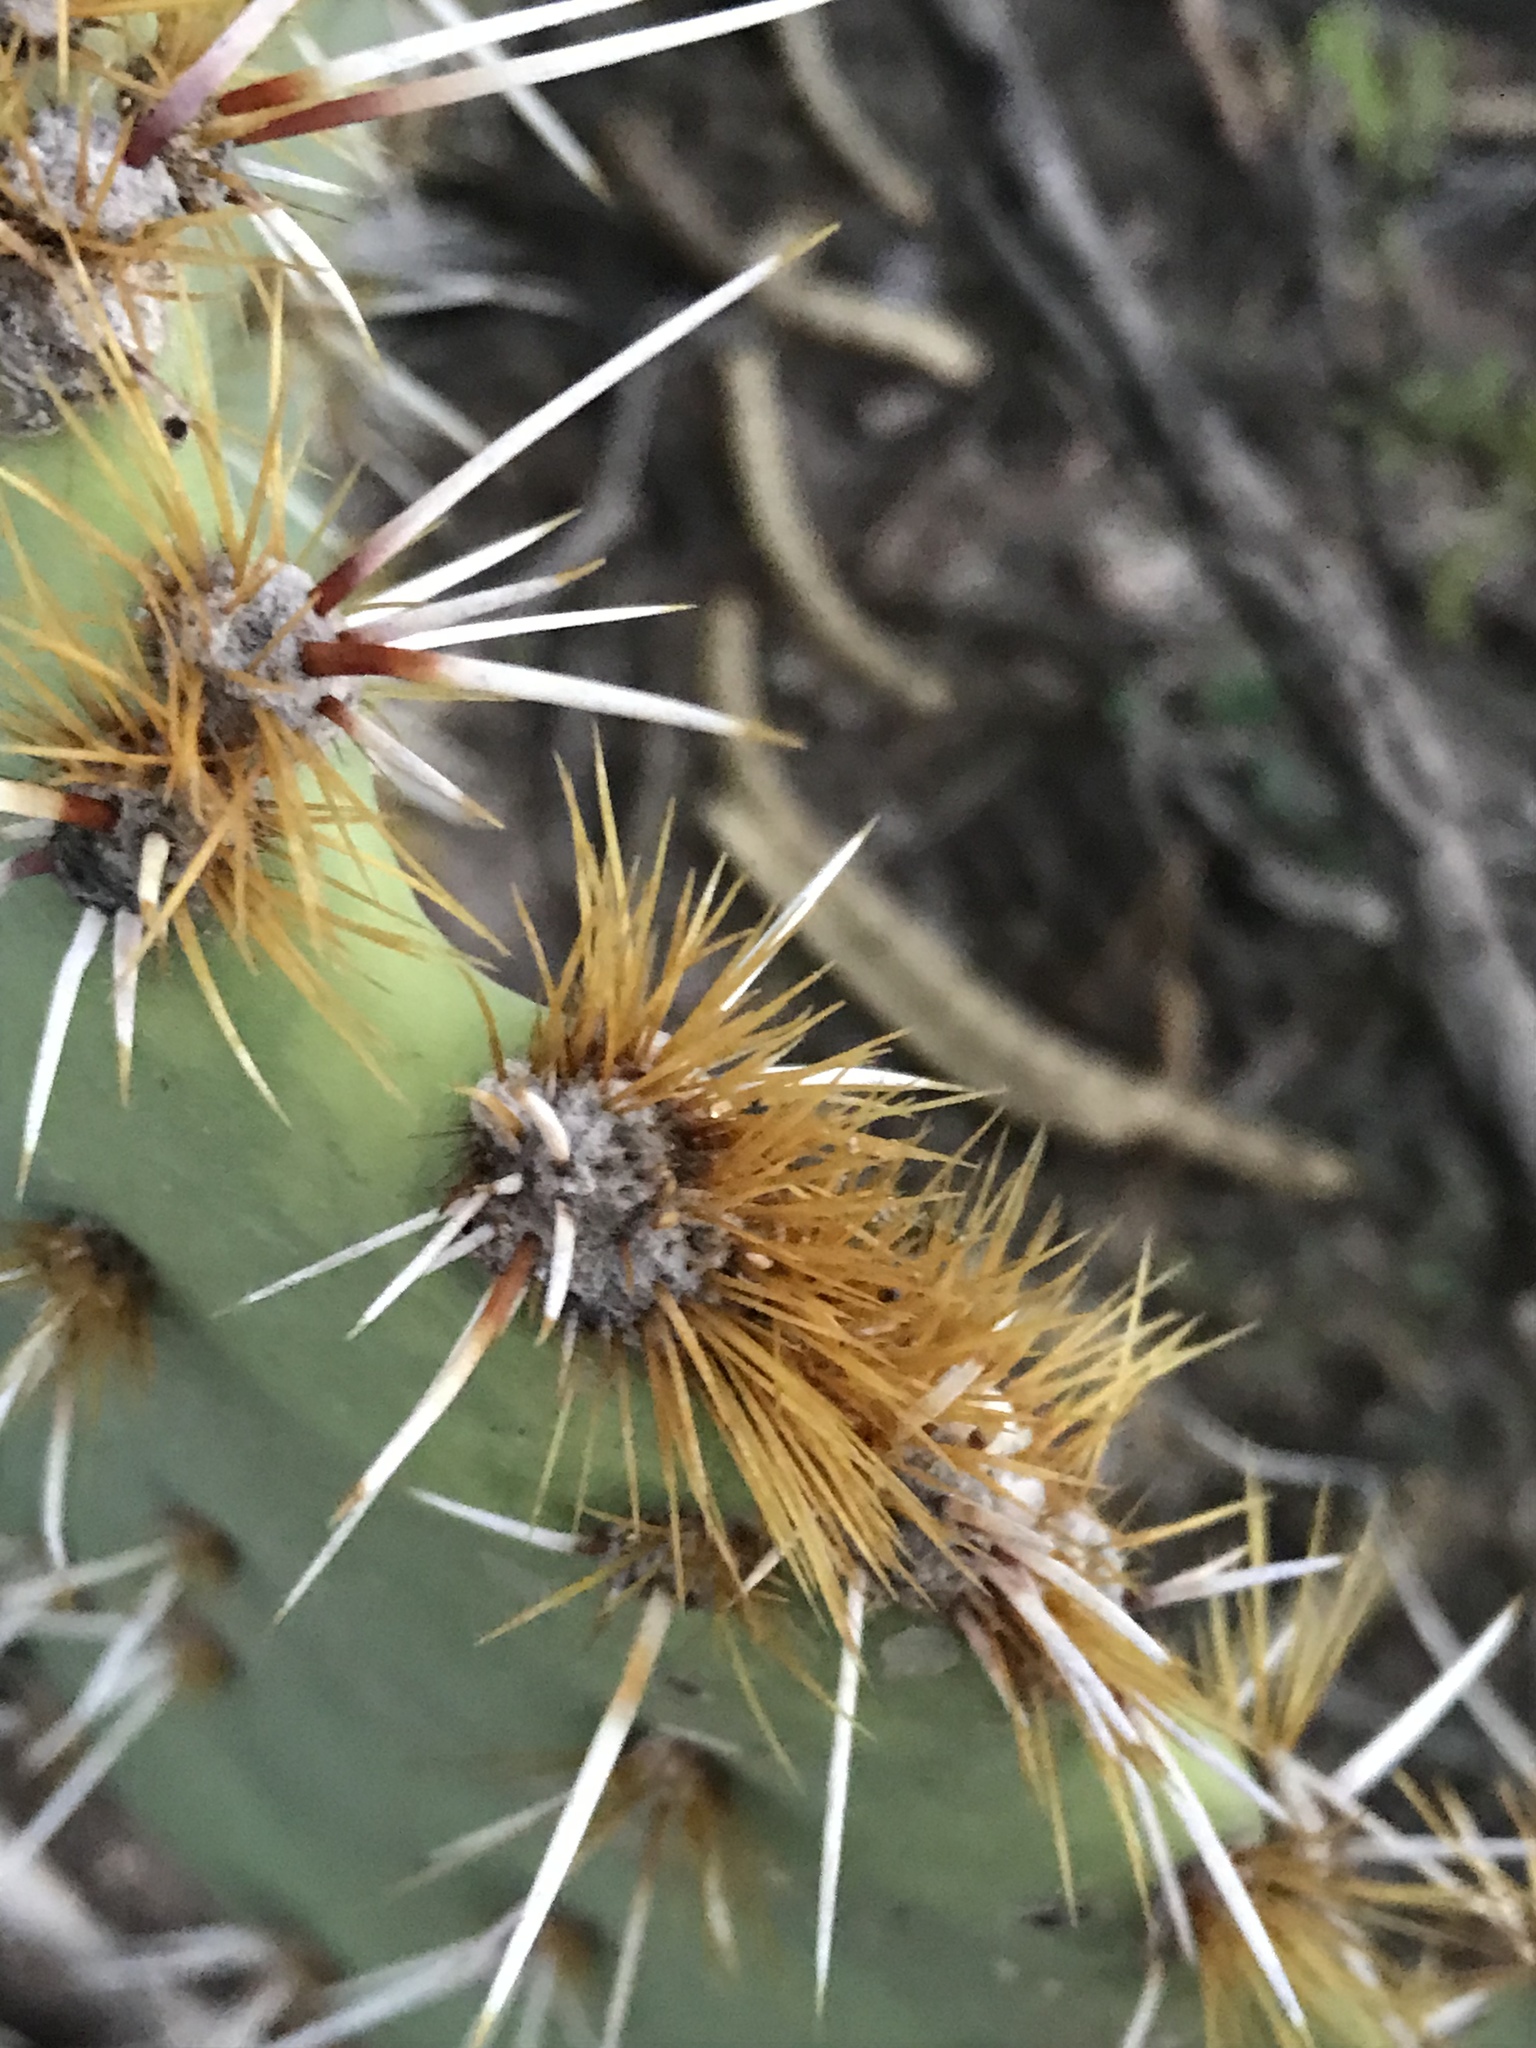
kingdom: Plantae
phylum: Tracheophyta
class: Magnoliopsida
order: Caryophyllales
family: Cactaceae
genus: Opuntia
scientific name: Opuntia phaeacantha
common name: New mexico prickly-pear
